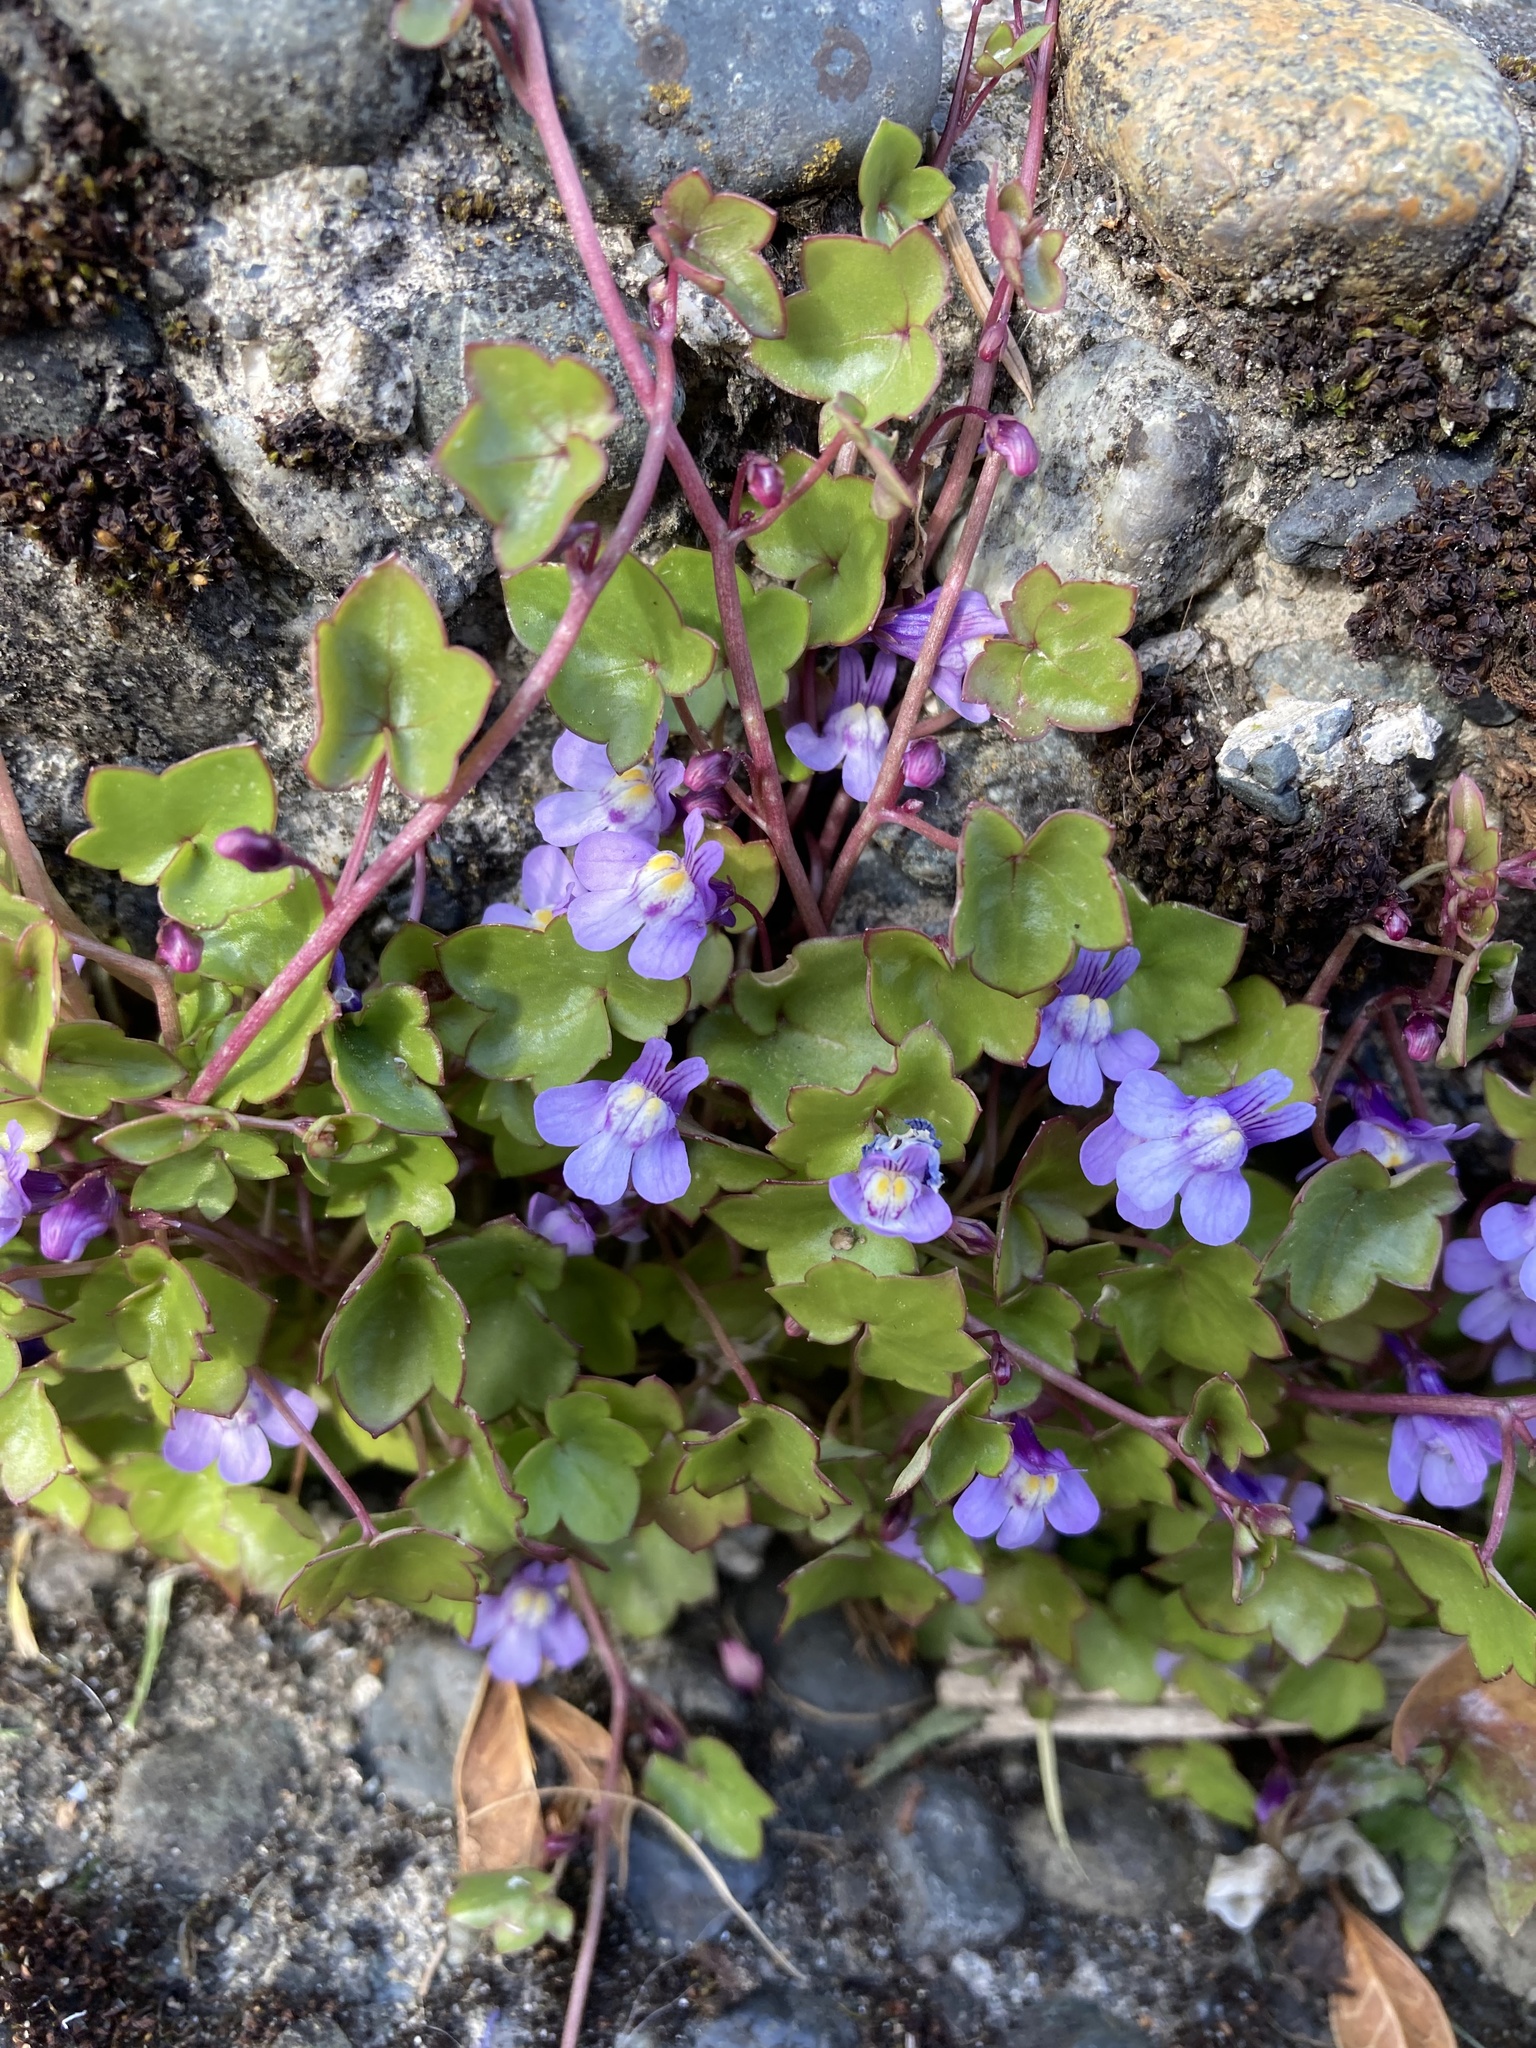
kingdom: Plantae
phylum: Tracheophyta
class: Magnoliopsida
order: Lamiales
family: Plantaginaceae
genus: Cymbalaria
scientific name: Cymbalaria muralis
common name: Ivy-leaved toadflax
